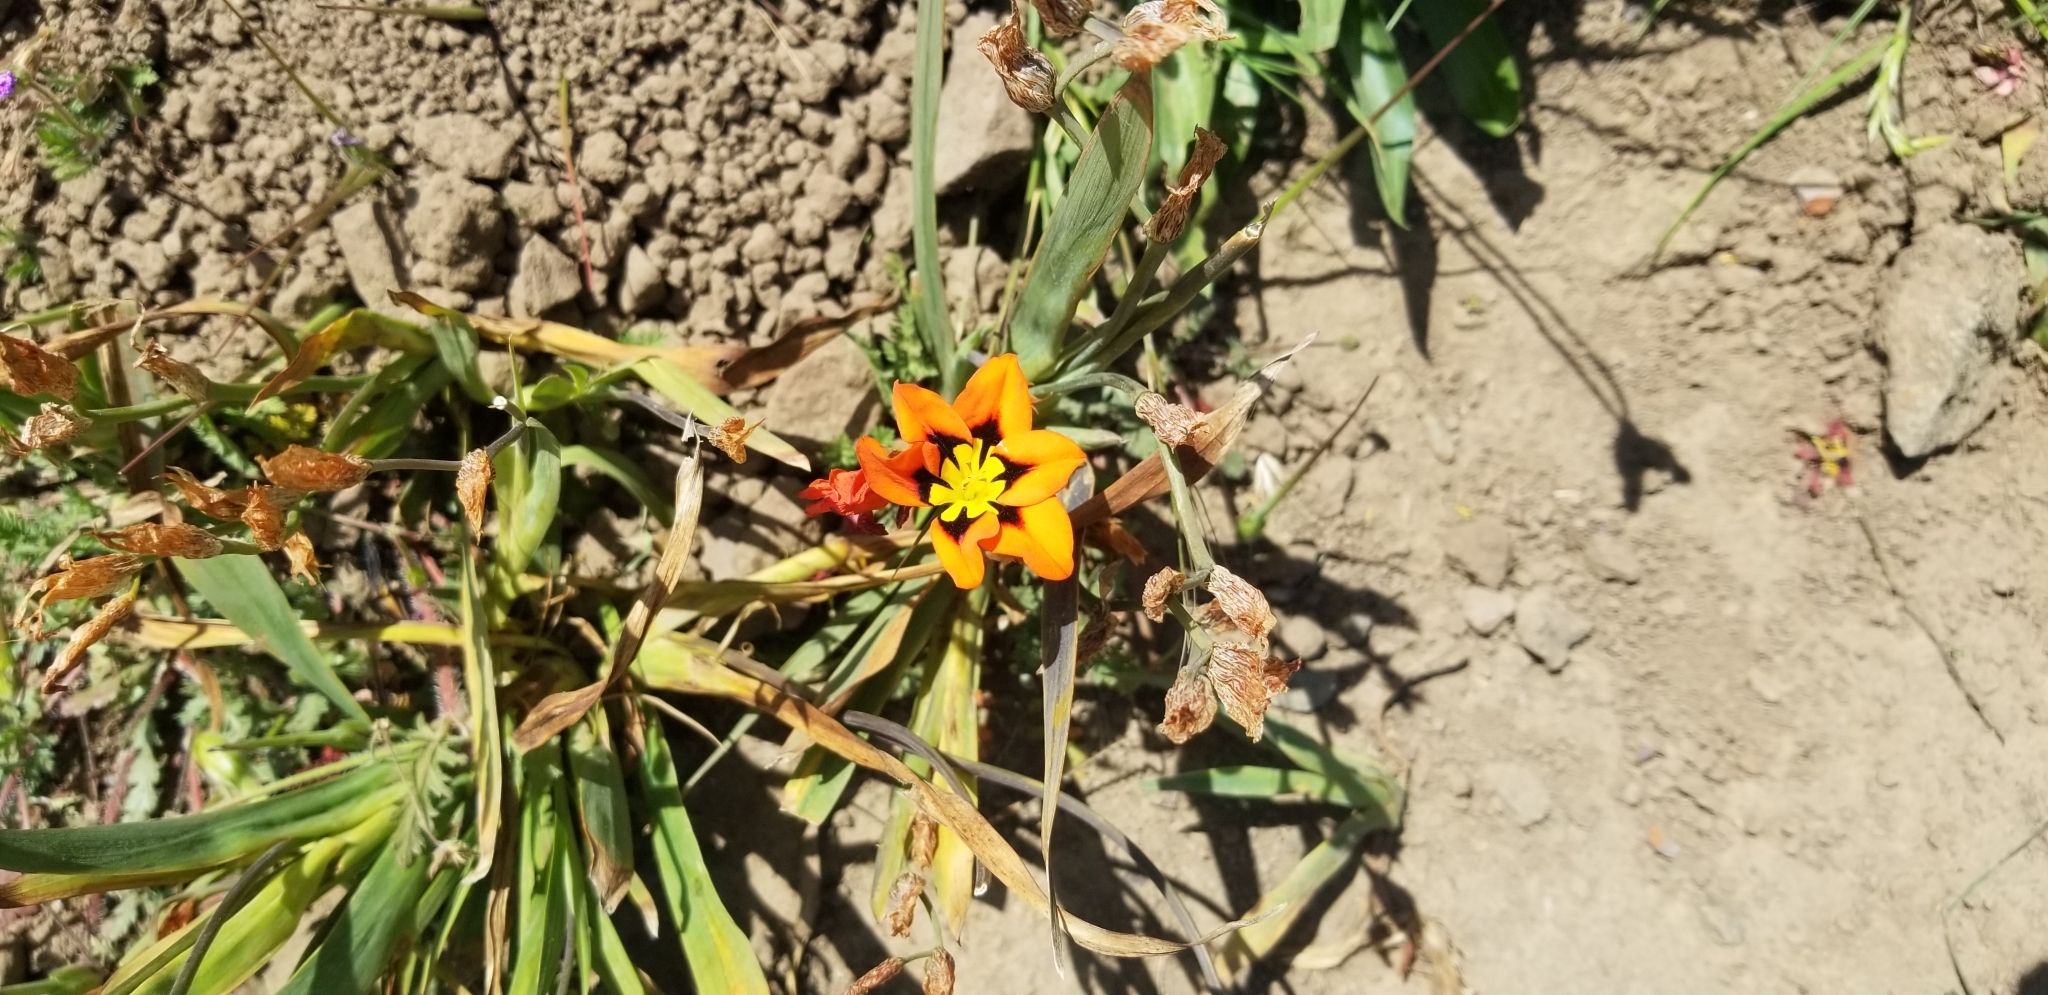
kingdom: Plantae
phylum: Tracheophyta
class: Liliopsida
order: Asparagales
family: Iridaceae
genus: Sparaxis
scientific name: Sparaxis tricolor
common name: Wandflower
